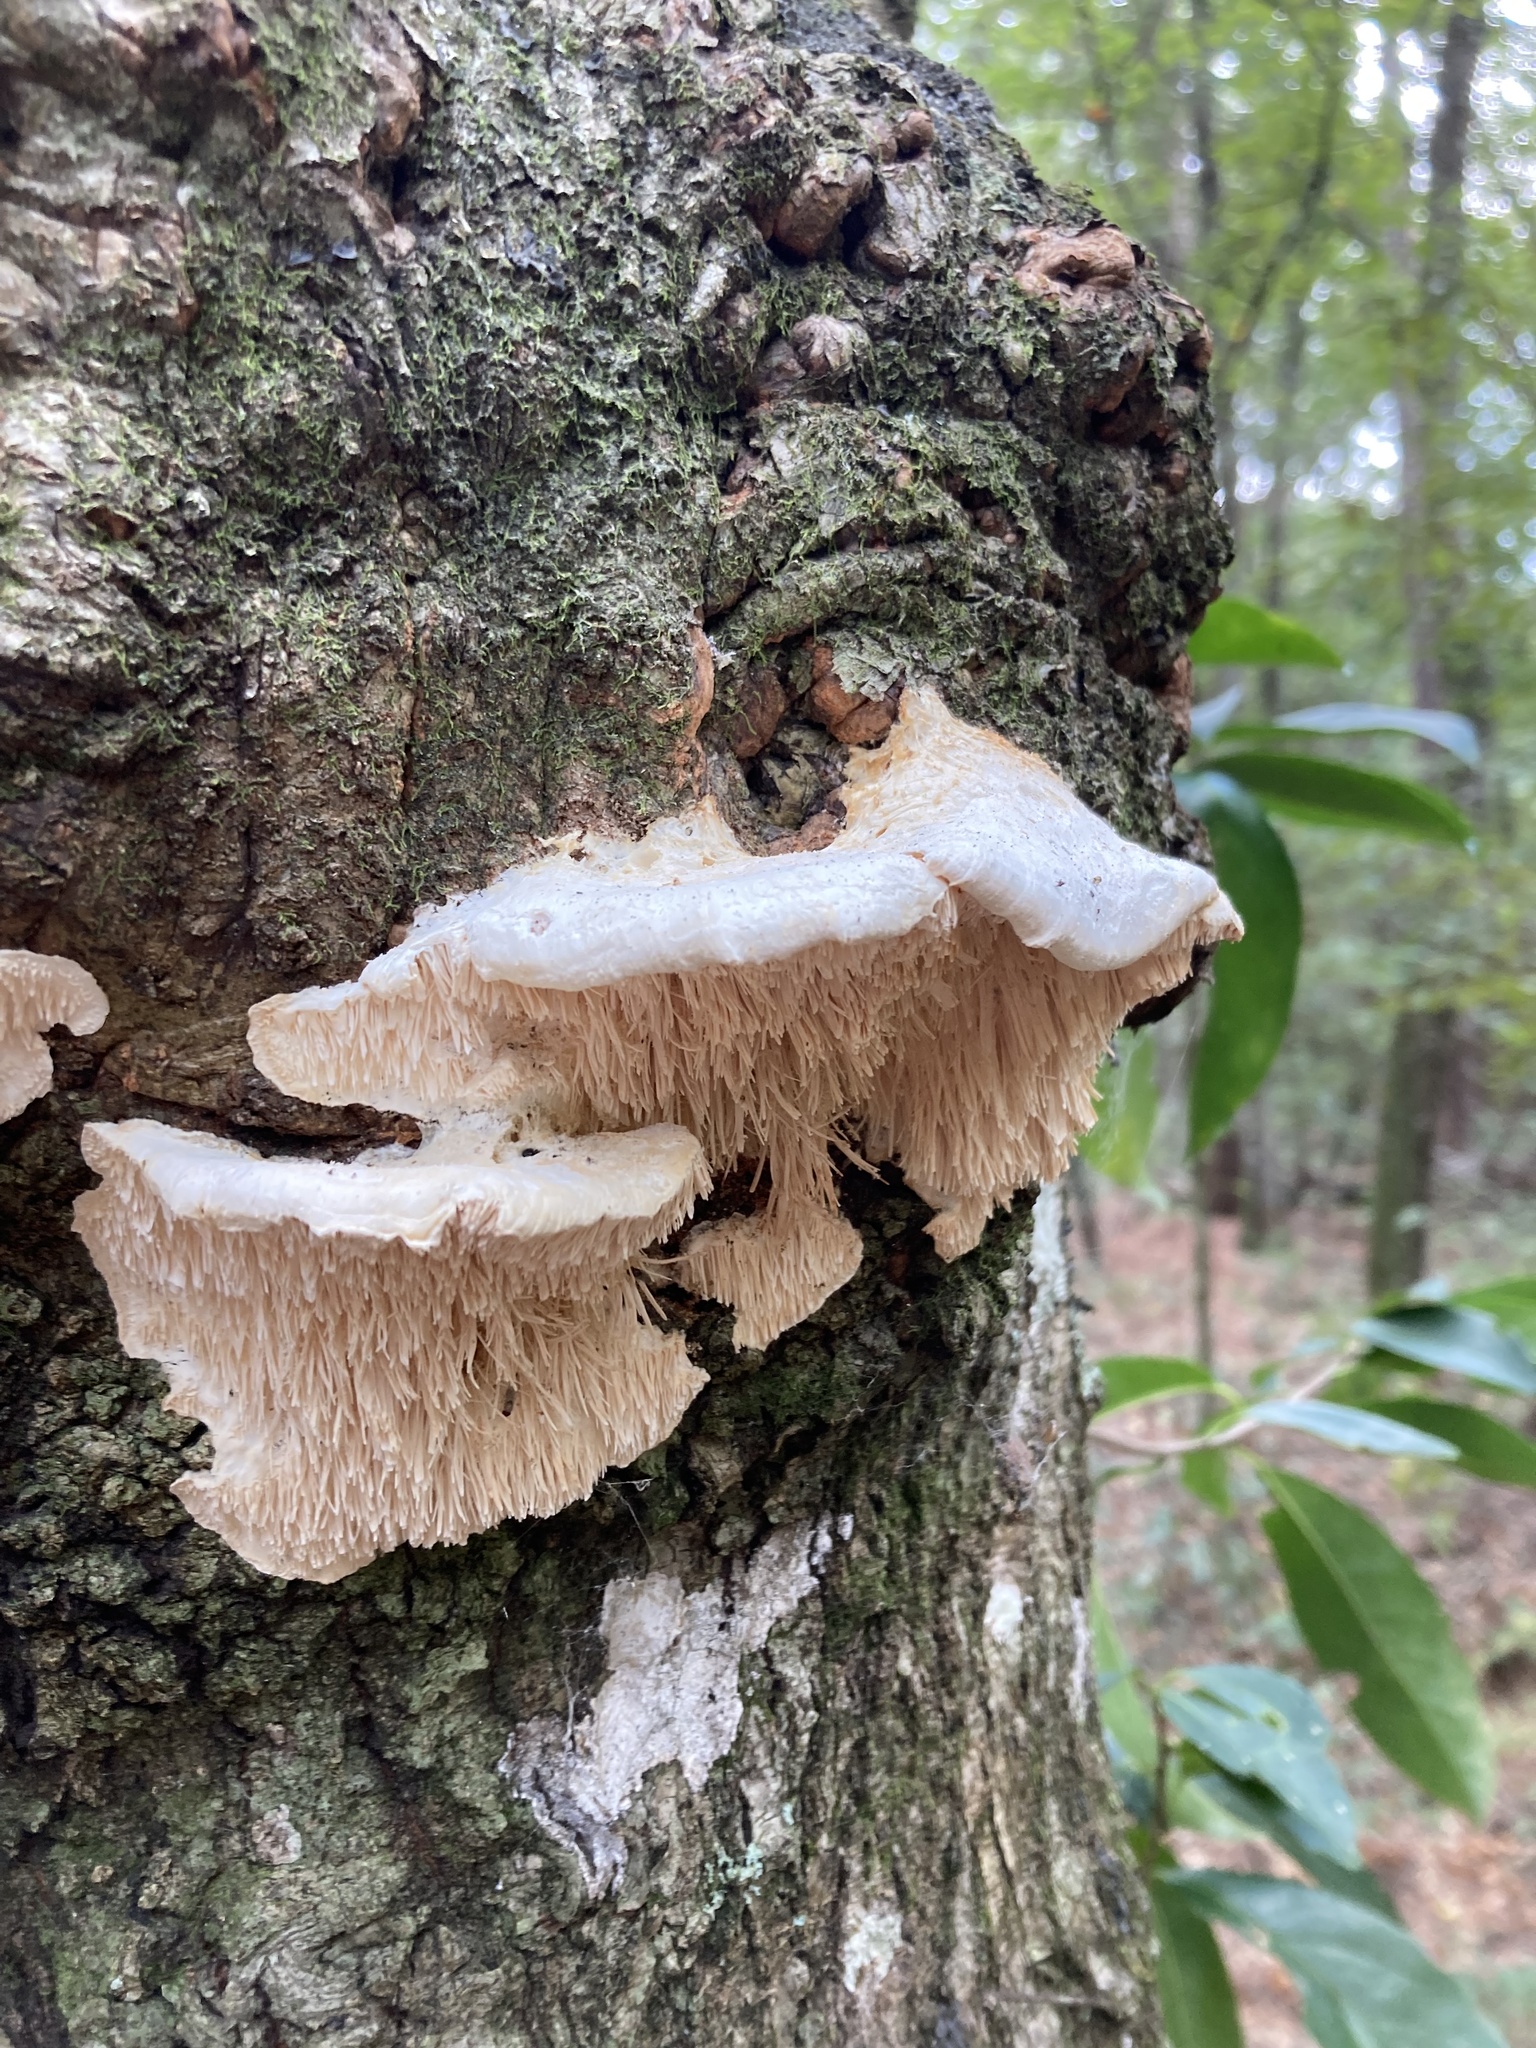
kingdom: Fungi
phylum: Basidiomycota
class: Agaricomycetes
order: Polyporales
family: Meruliaceae
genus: Irpiciporus
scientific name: Irpiciporus pachyodon
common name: Marshmallow polypore
